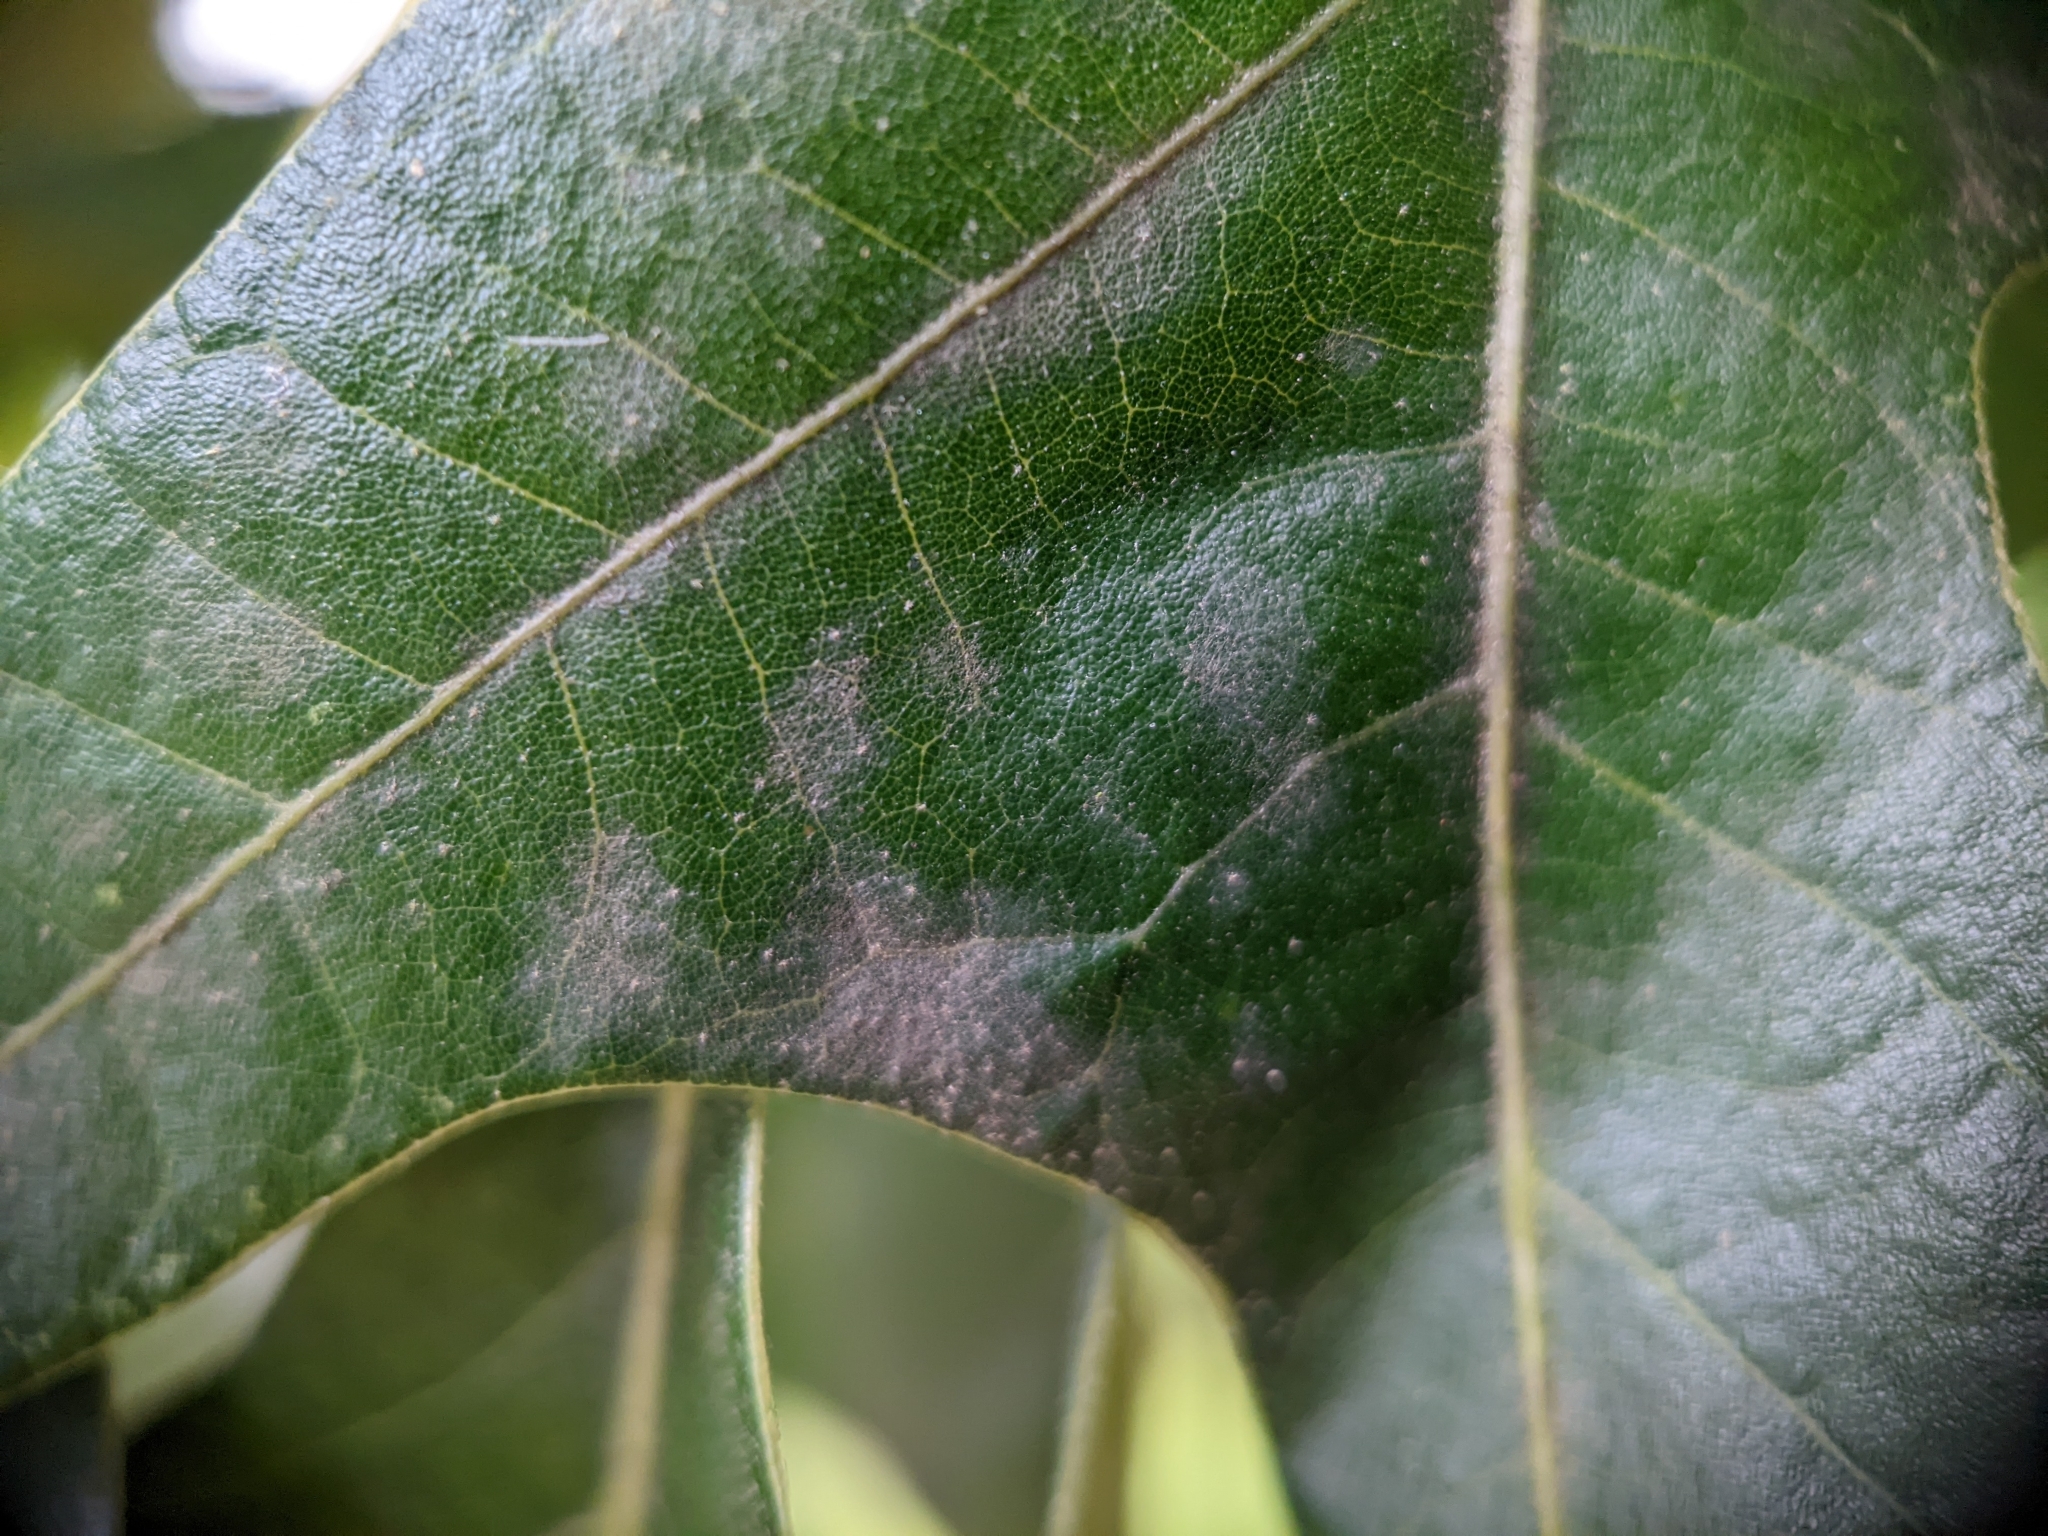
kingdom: Animalia
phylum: Arthropoda
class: Insecta
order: Hymenoptera
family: Vespidae
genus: Eumenes
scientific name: Eumenes
